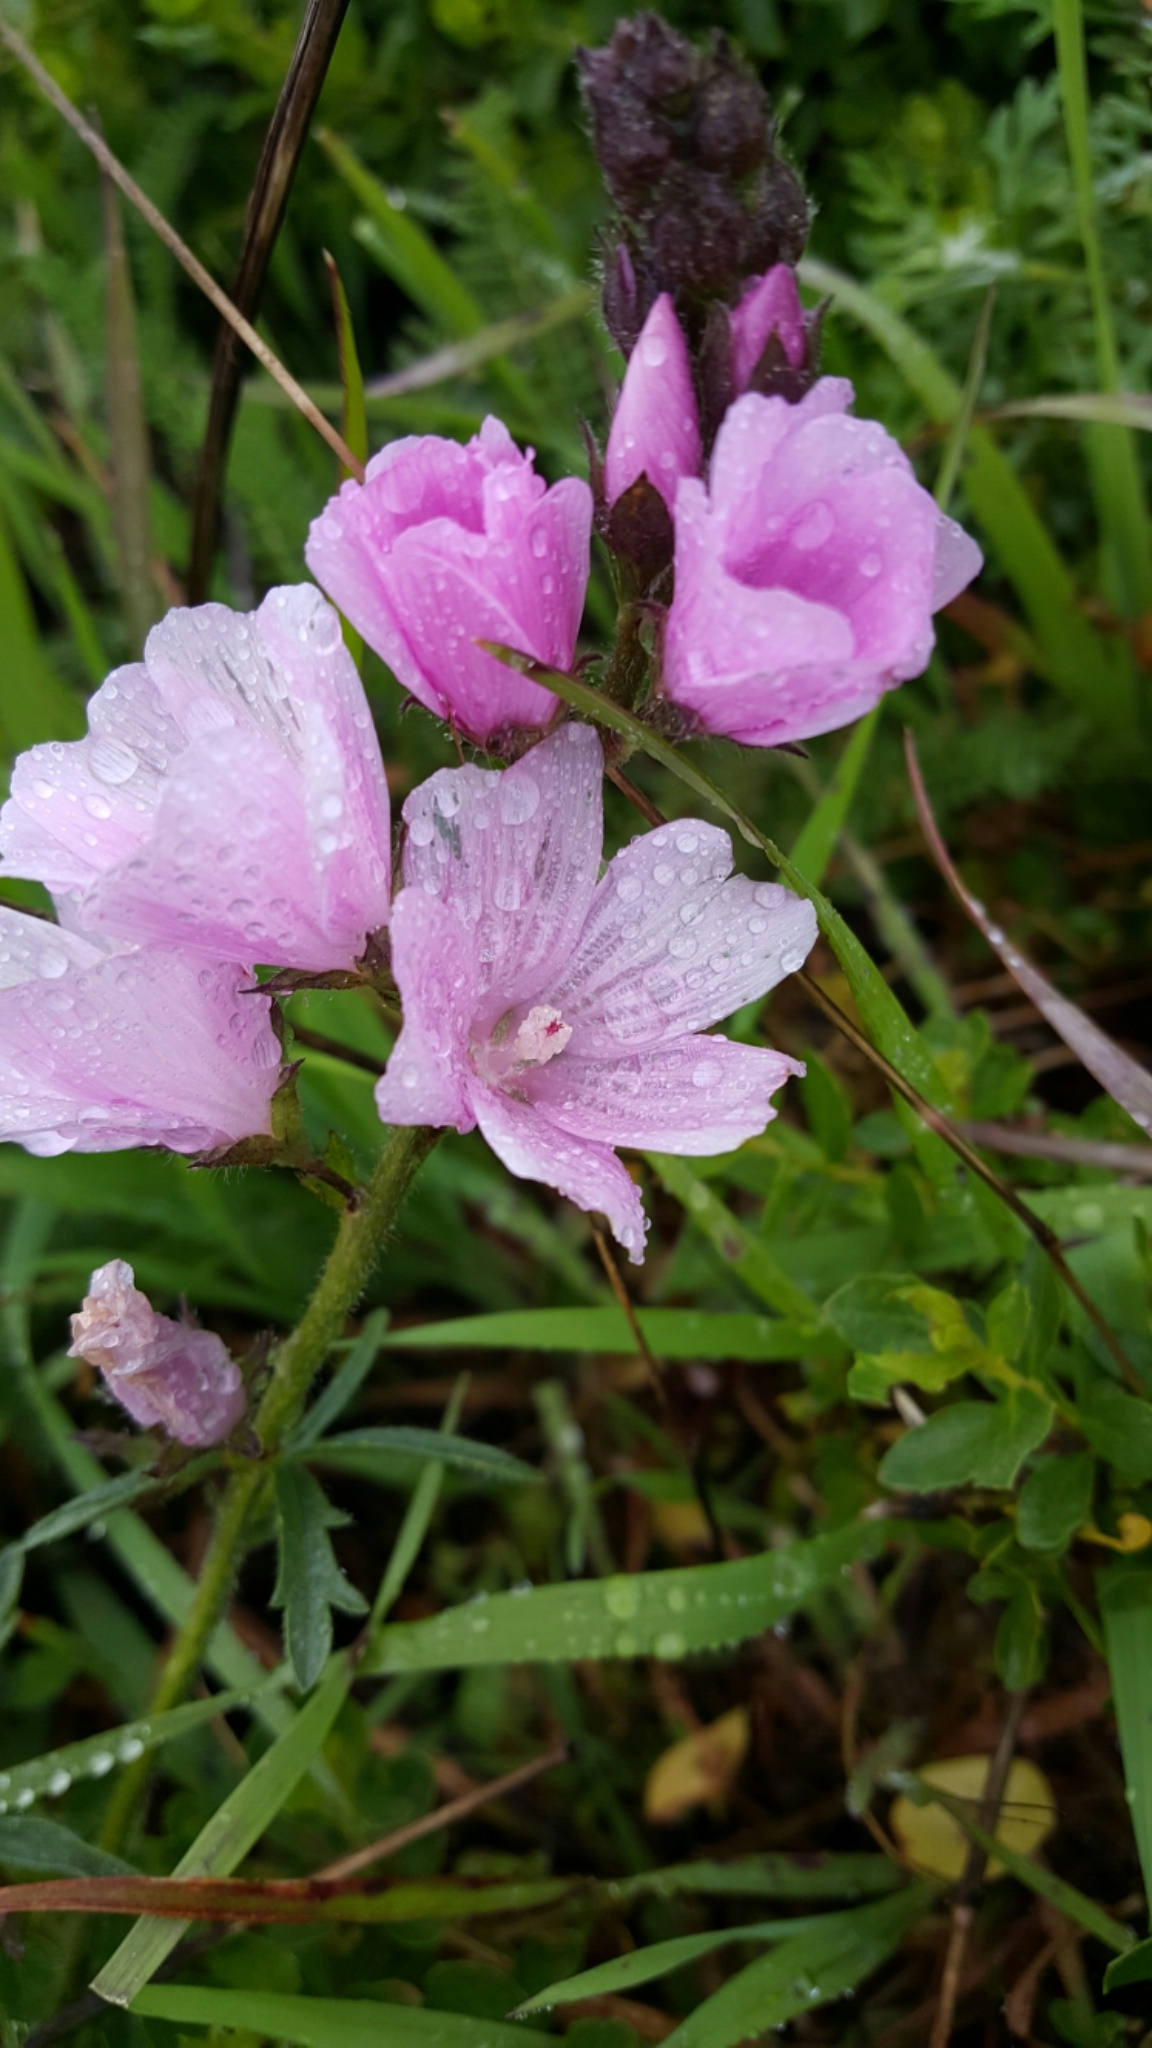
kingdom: Plantae
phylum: Tracheophyta
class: Magnoliopsida
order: Malvales
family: Malvaceae
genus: Sidalcea
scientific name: Sidalcea malviflora
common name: Greek mallow
